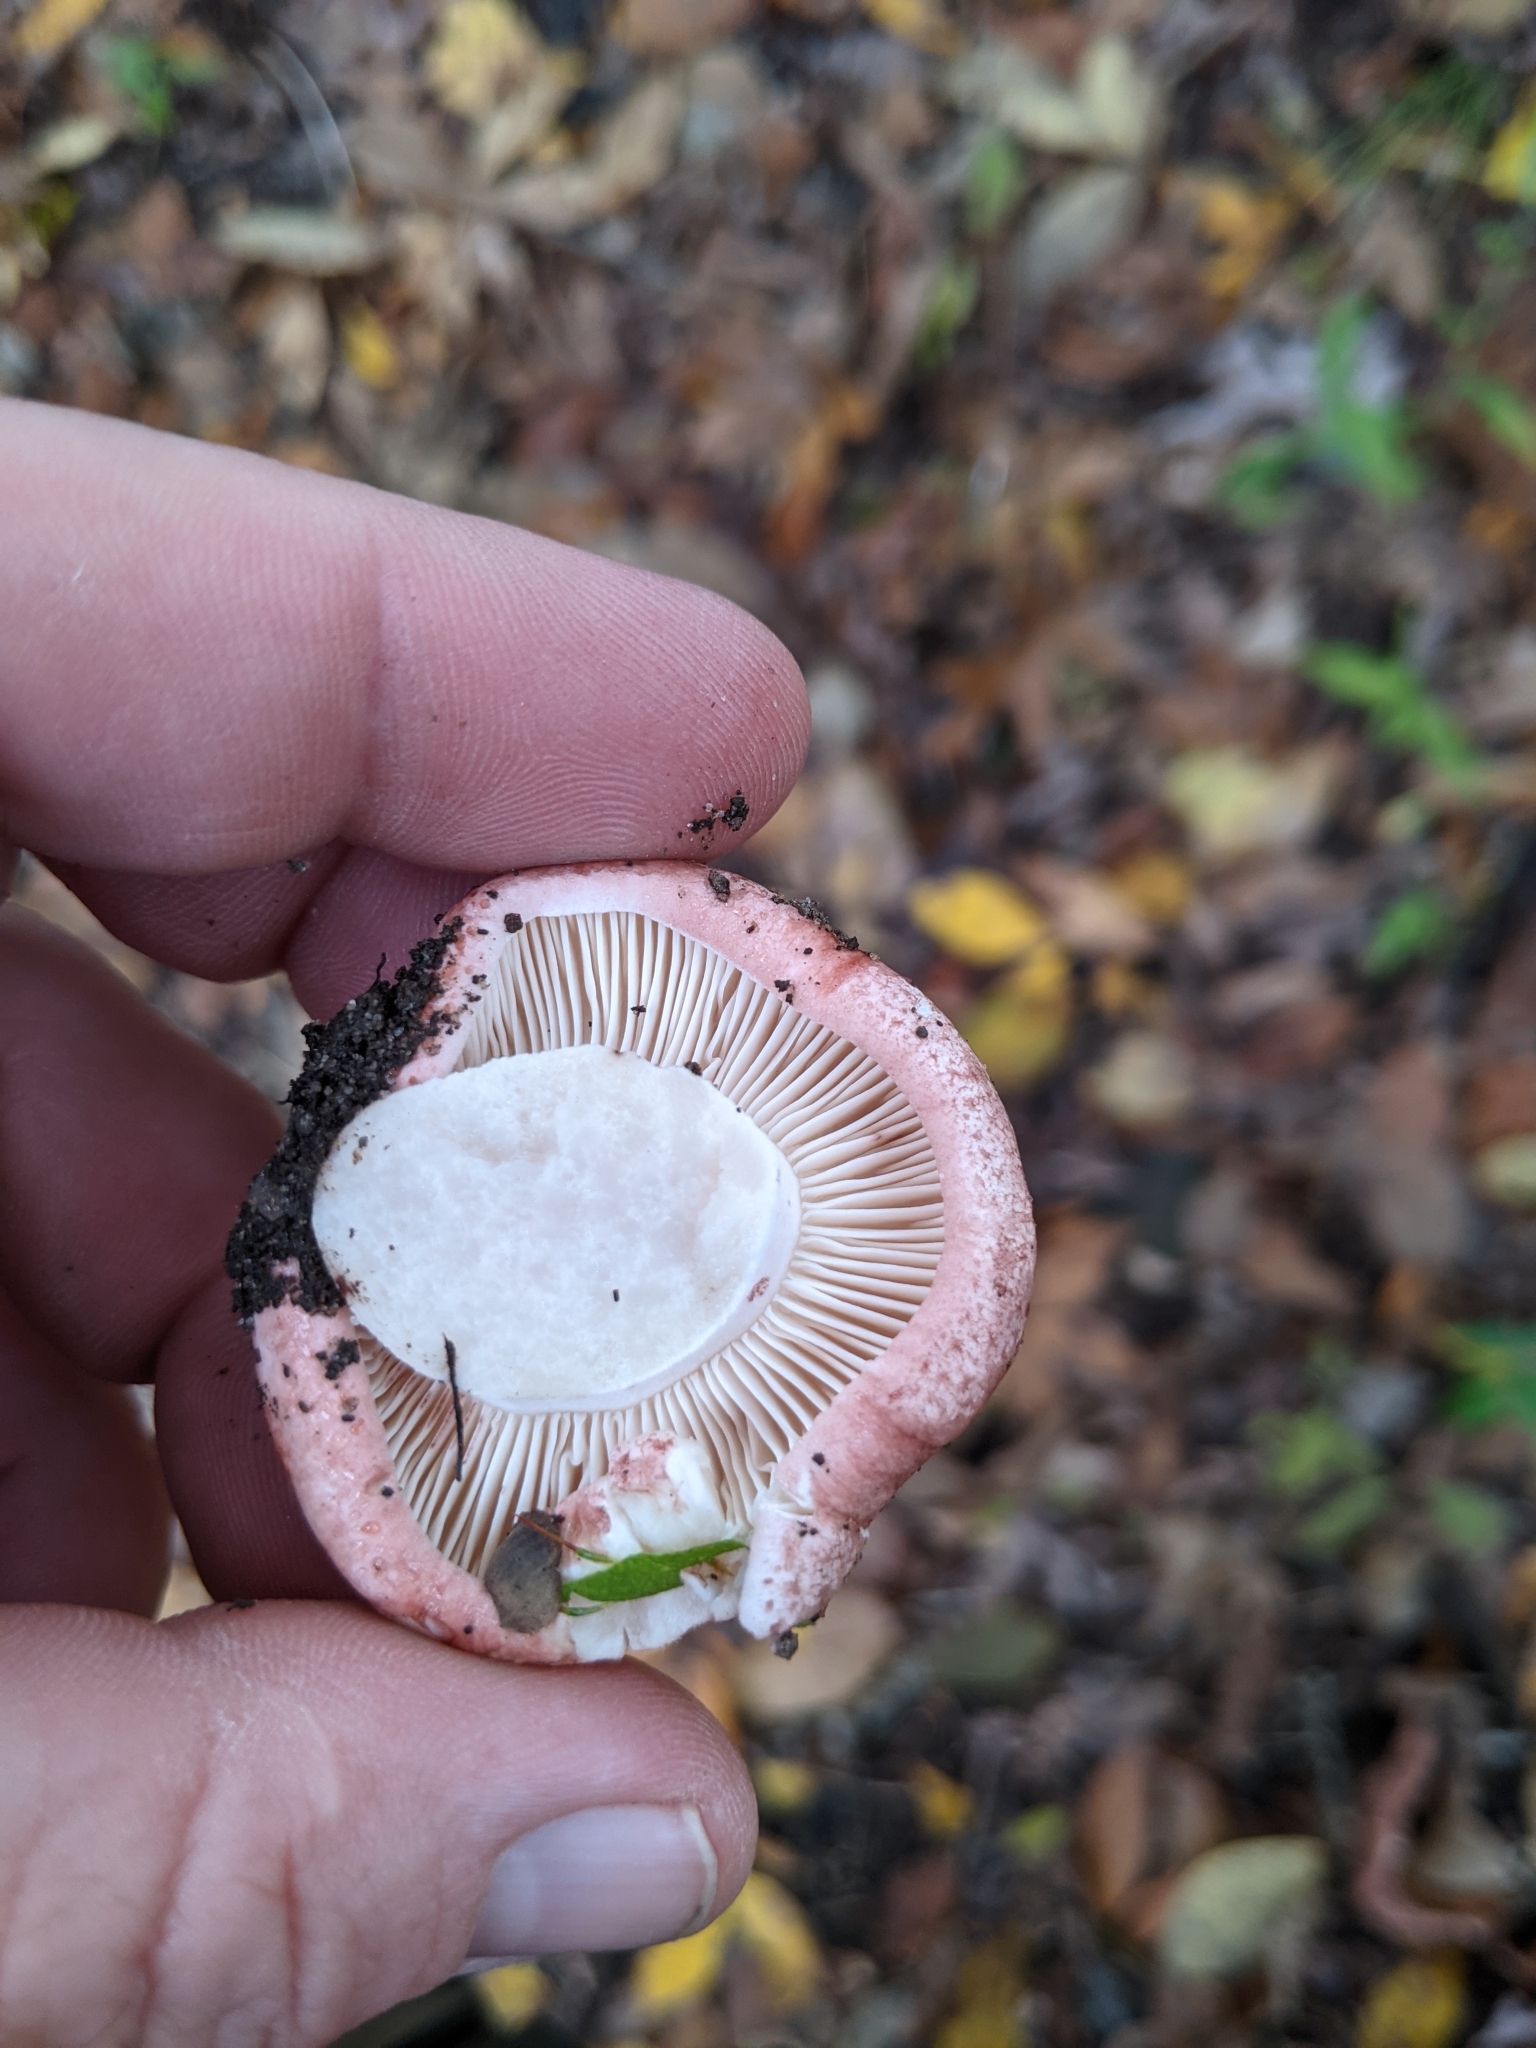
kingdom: Fungi
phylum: Basidiomycota
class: Agaricomycetes
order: Agaricales
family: Hygrophoraceae
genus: Hygrophorus
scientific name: Hygrophorus russula
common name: Pinkmottle woodwax
